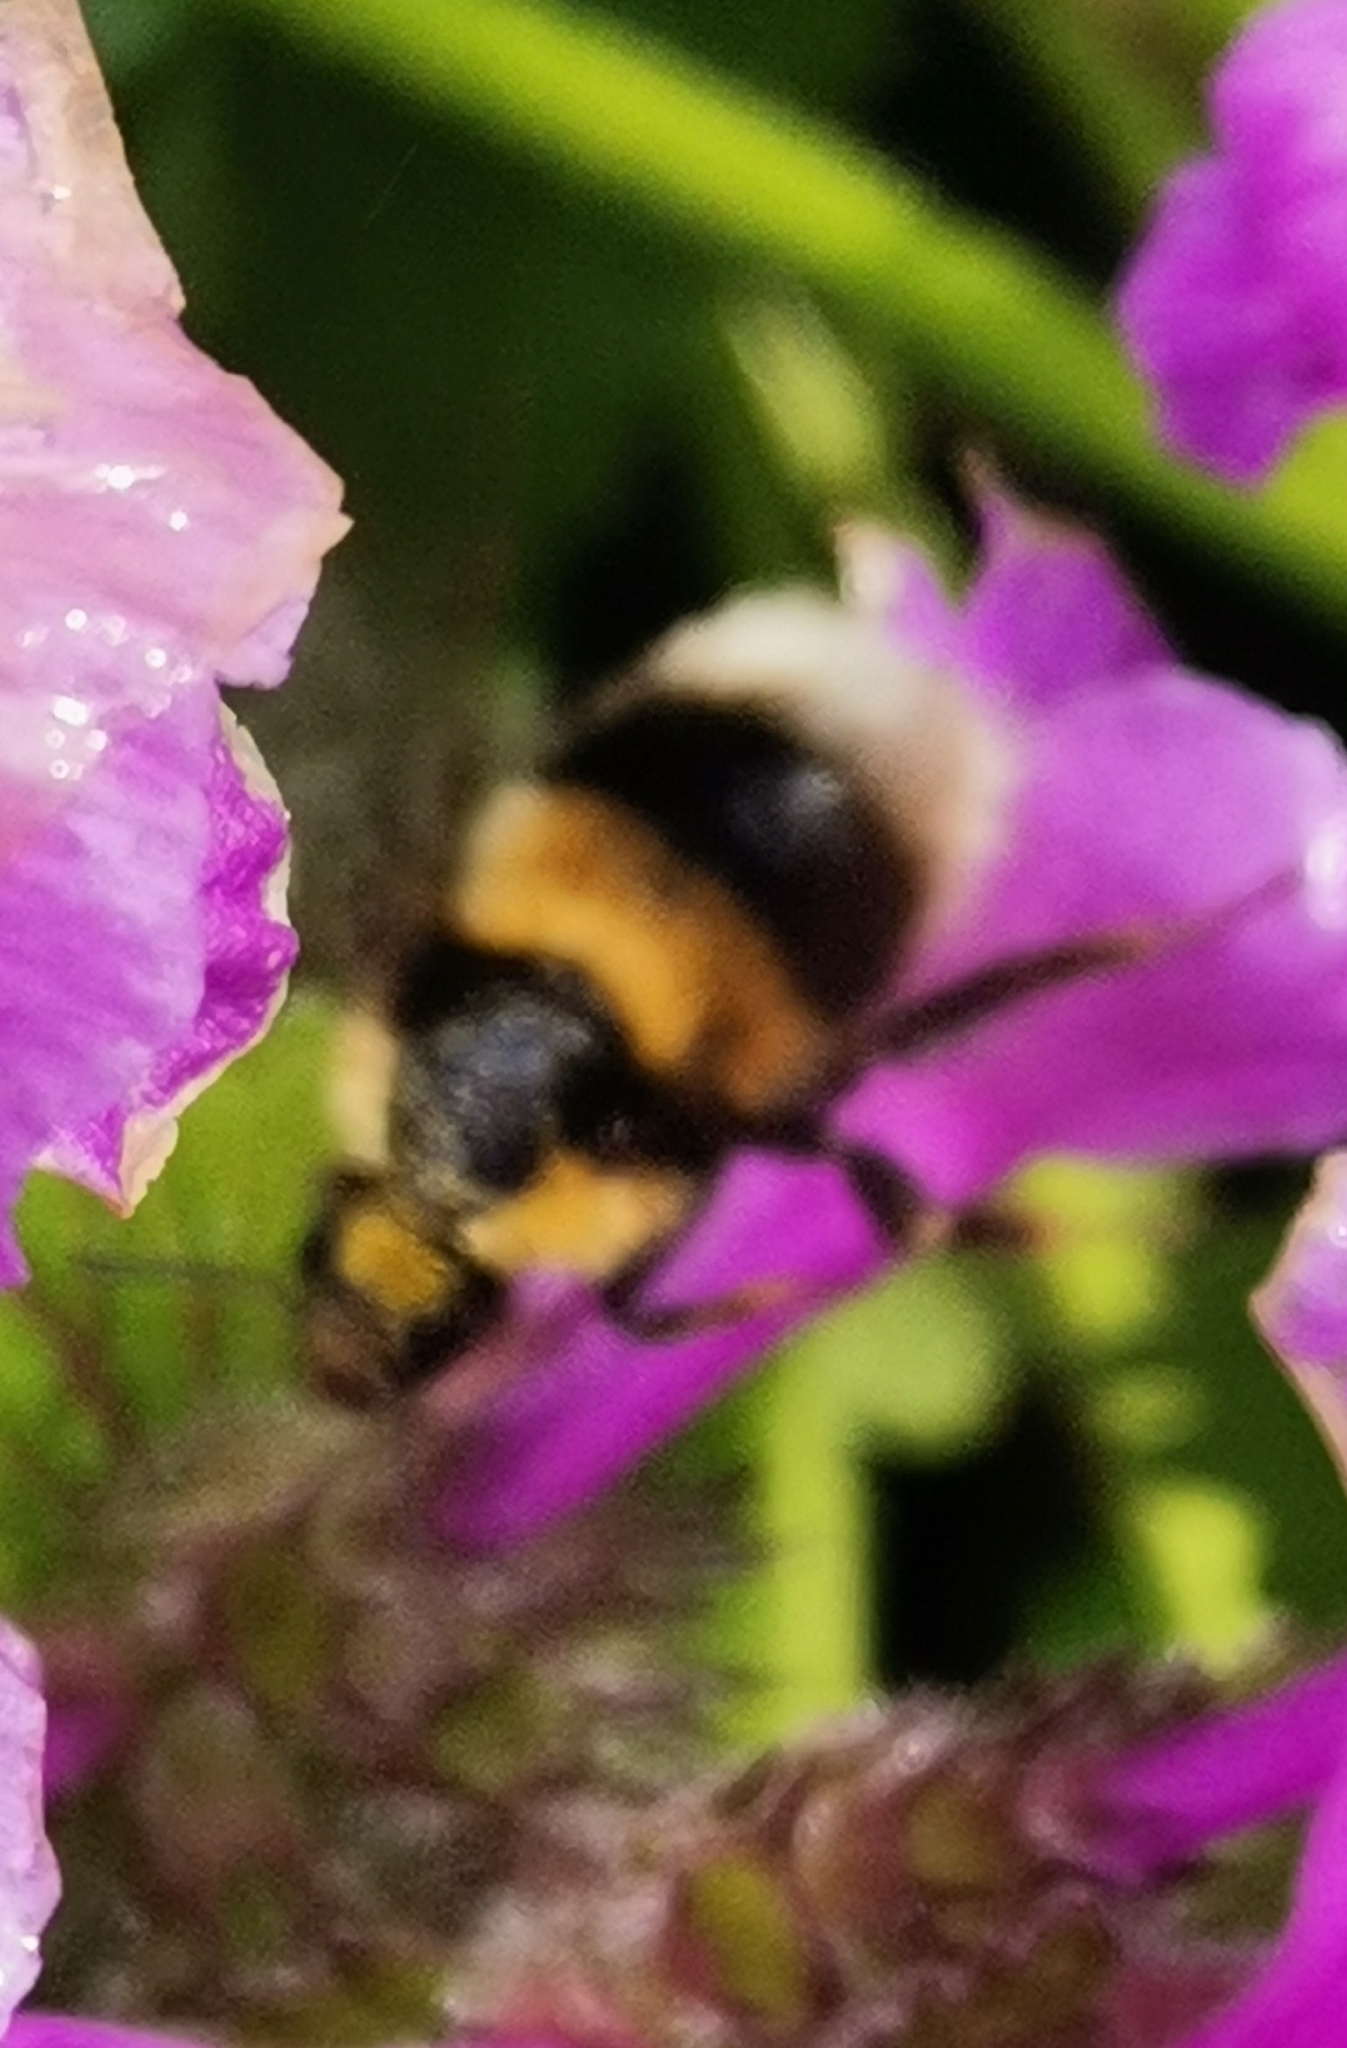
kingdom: Animalia
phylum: Arthropoda
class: Insecta
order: Hymenoptera
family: Apidae
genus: Bombus
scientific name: Bombus hortorum
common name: Garden bumblebee
